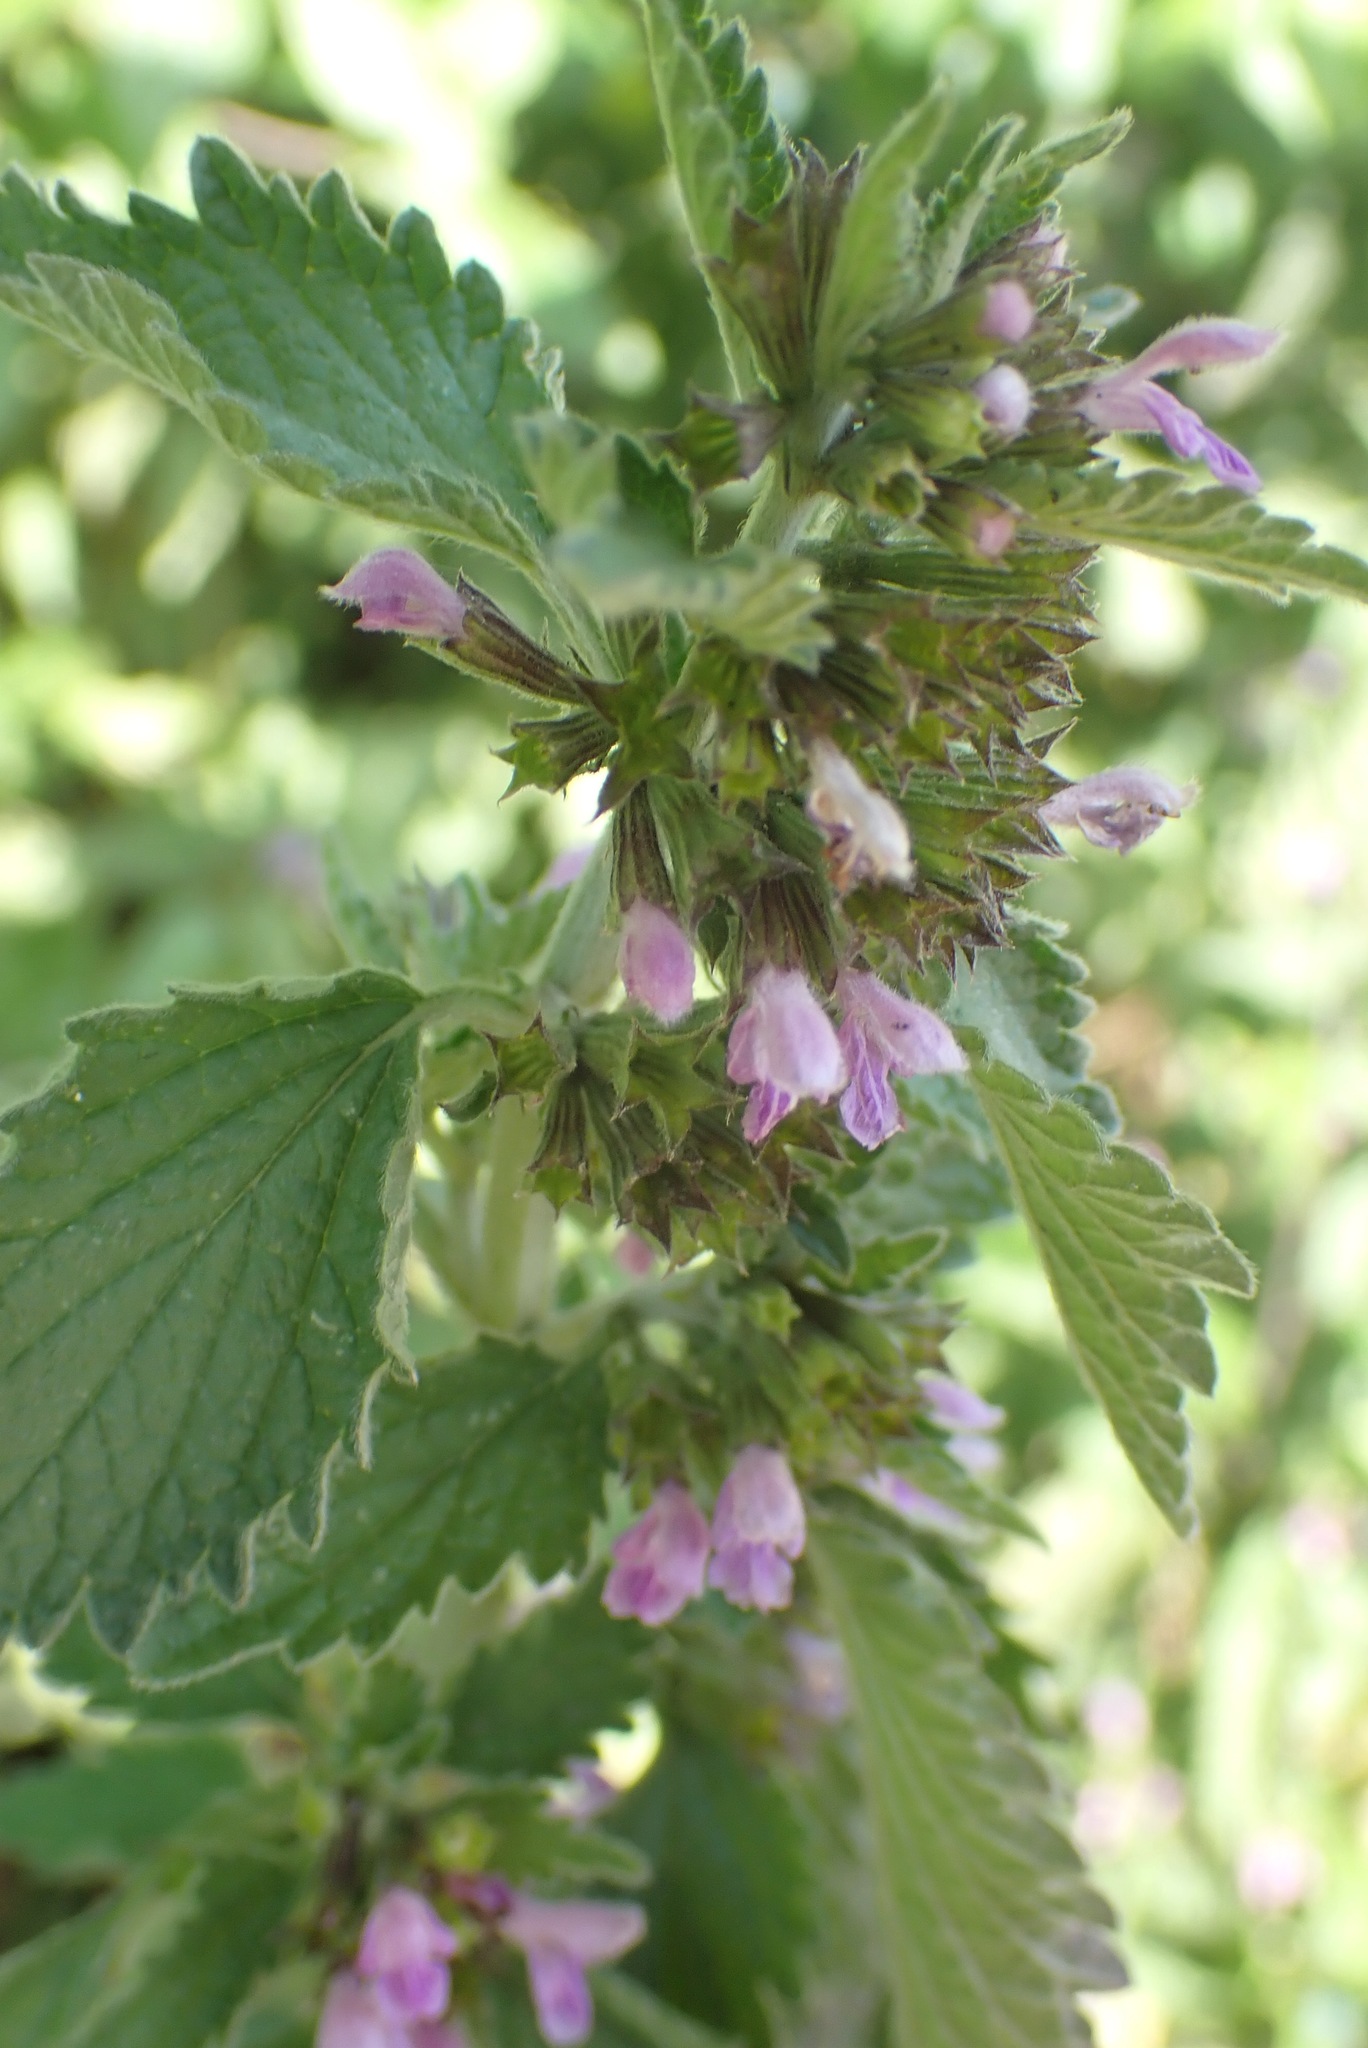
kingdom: Plantae
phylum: Tracheophyta
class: Magnoliopsida
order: Lamiales
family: Lamiaceae
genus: Ballota
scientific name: Ballota nigra
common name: Black horehound
